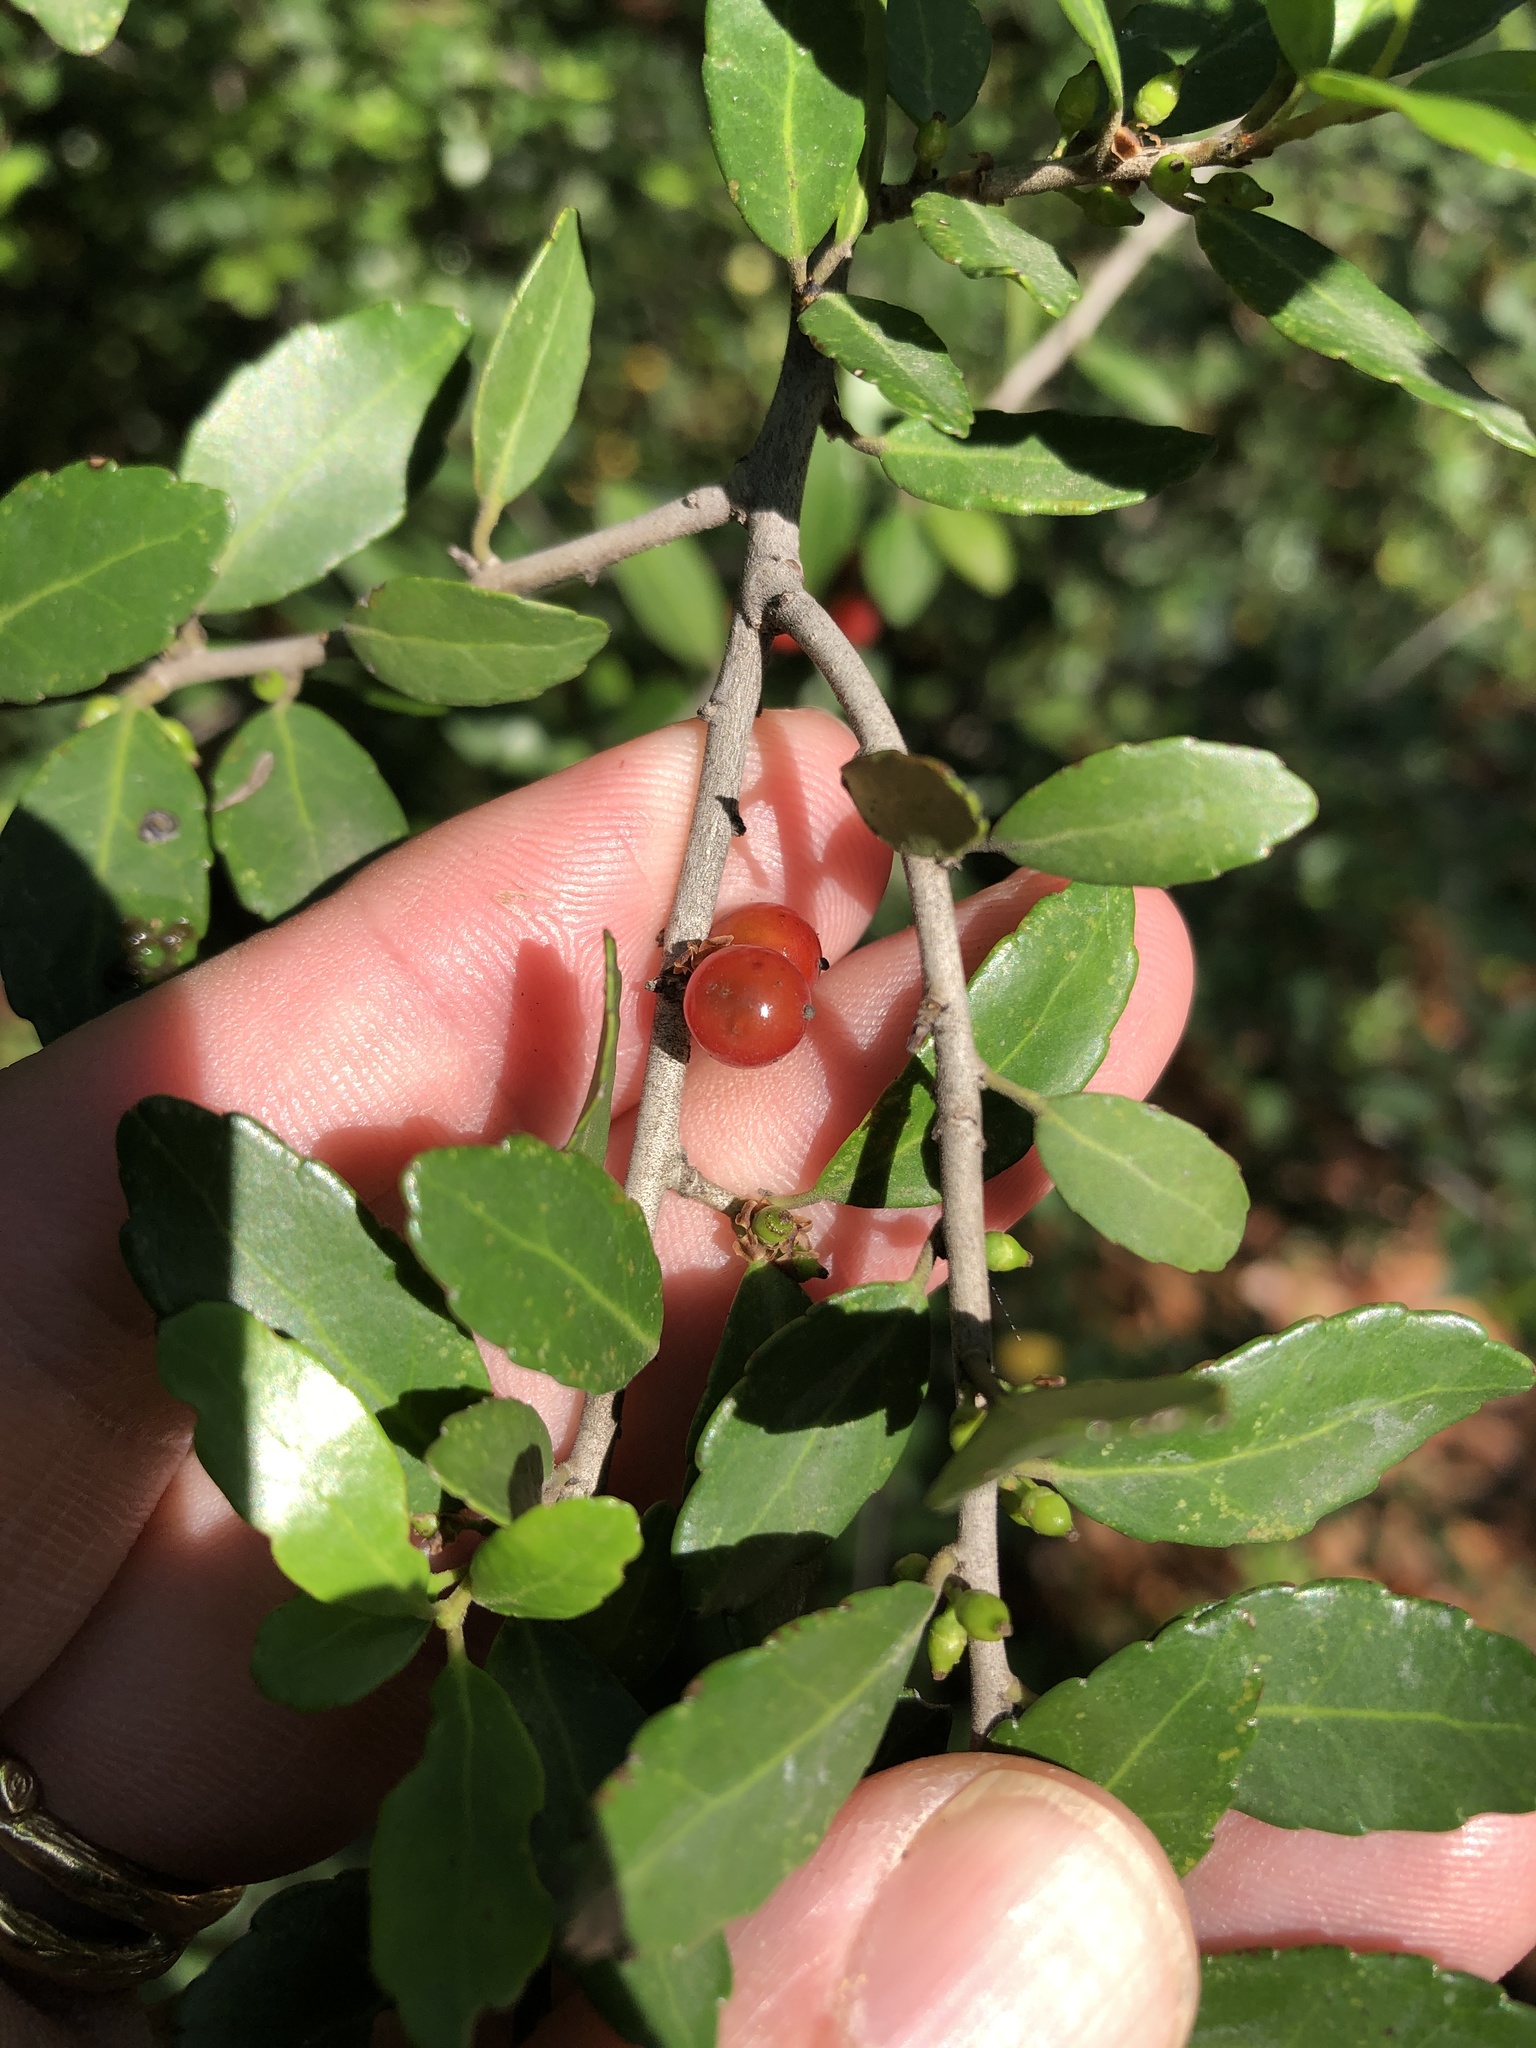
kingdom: Plantae
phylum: Tracheophyta
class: Magnoliopsida
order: Aquifoliales
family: Aquifoliaceae
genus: Ilex
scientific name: Ilex vomitoria
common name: Yaupon holly
